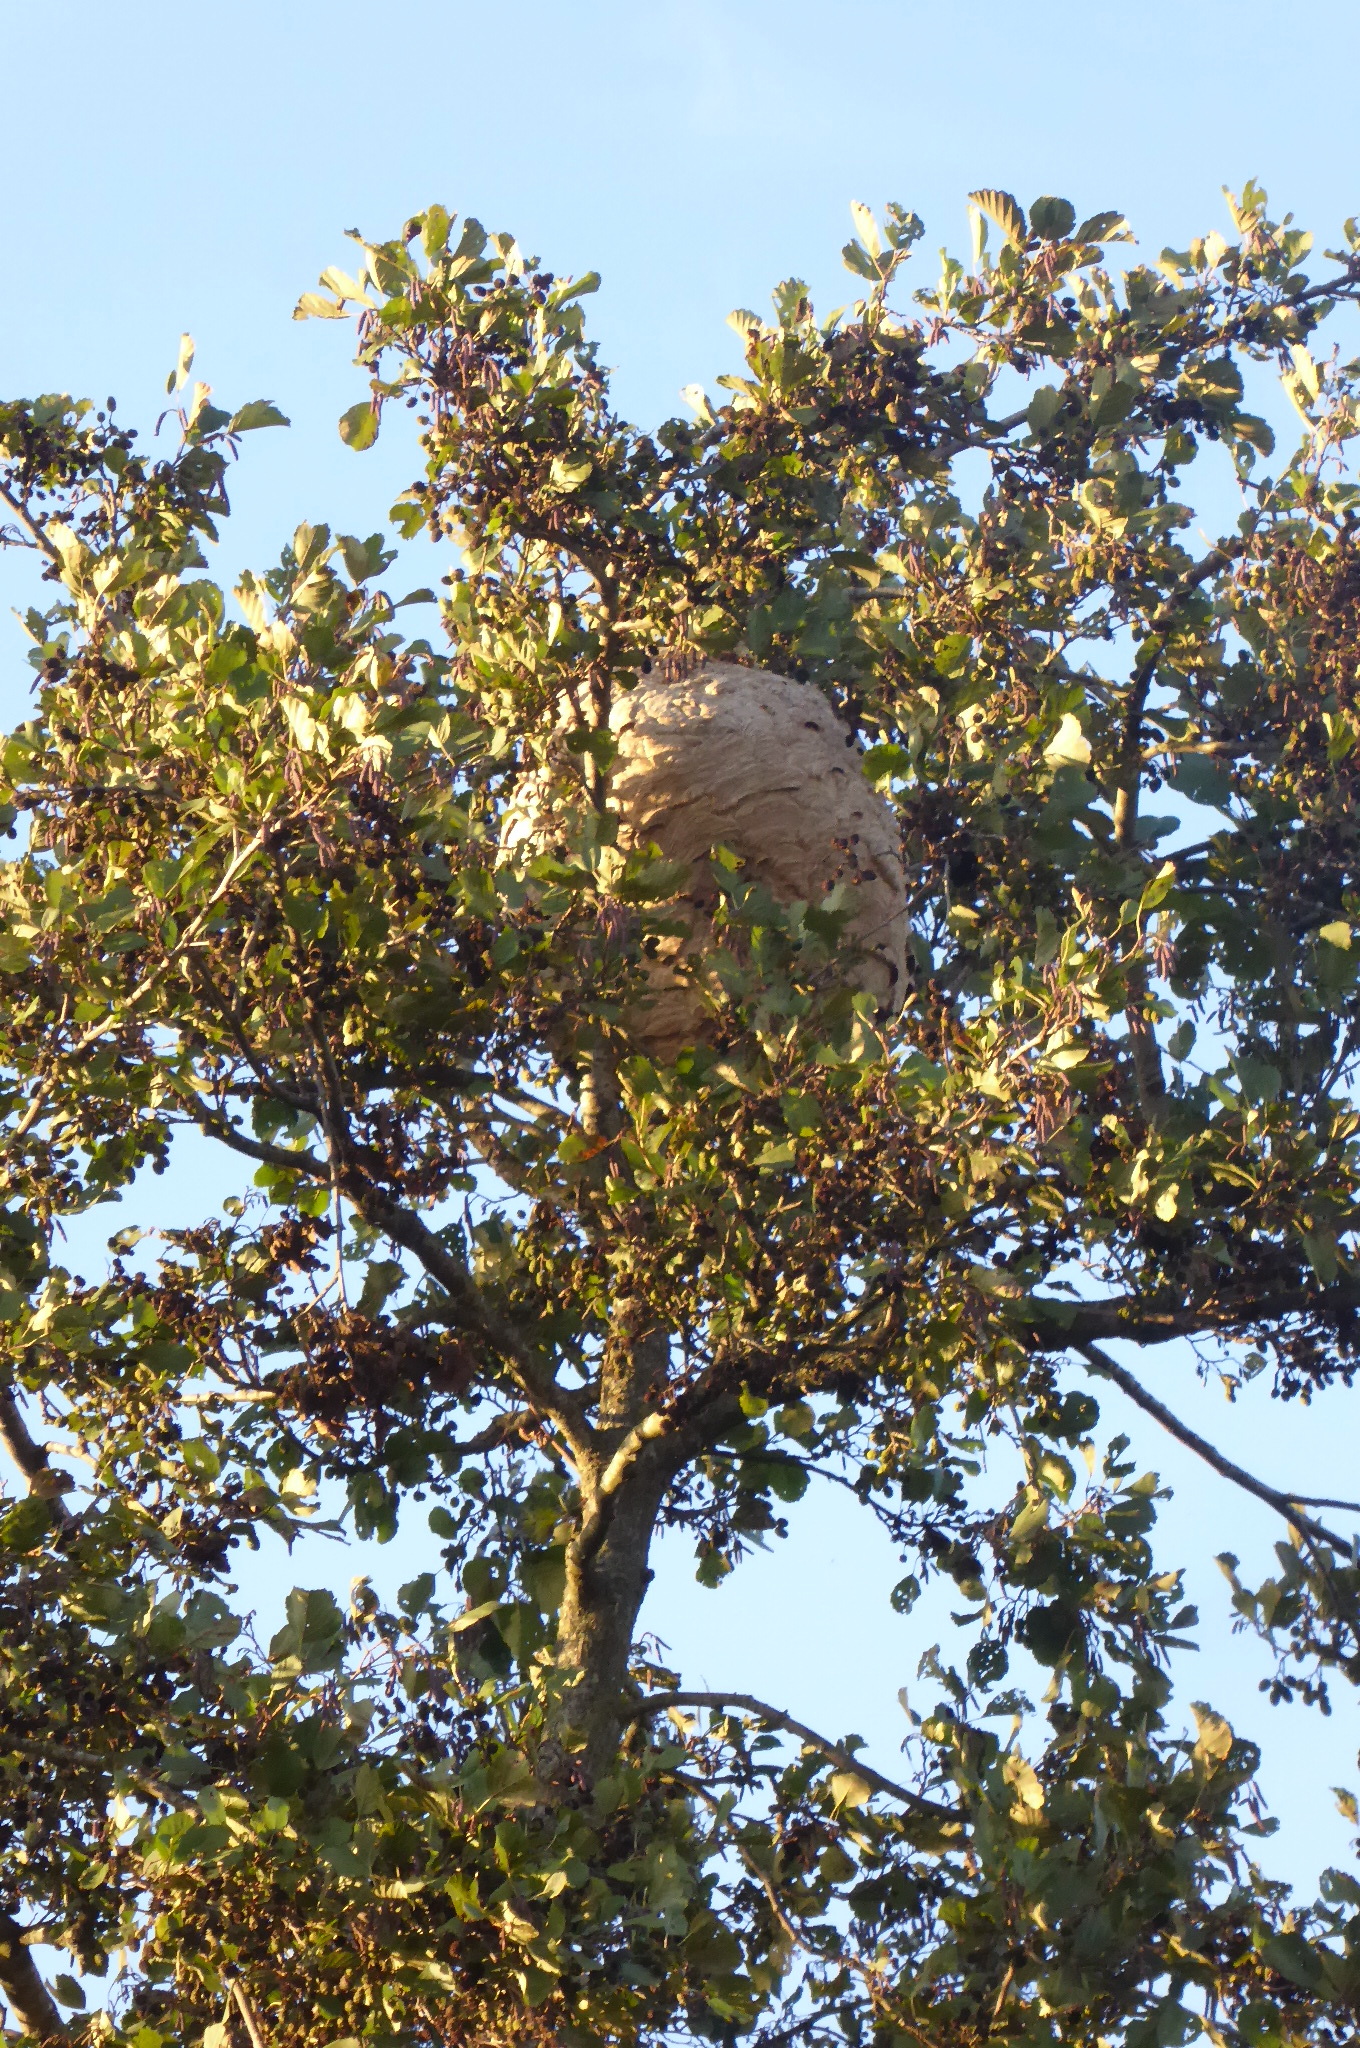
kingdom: Animalia
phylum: Arthropoda
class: Insecta
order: Hymenoptera
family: Vespidae
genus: Vespa
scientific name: Vespa velutina
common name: Asian hornet
